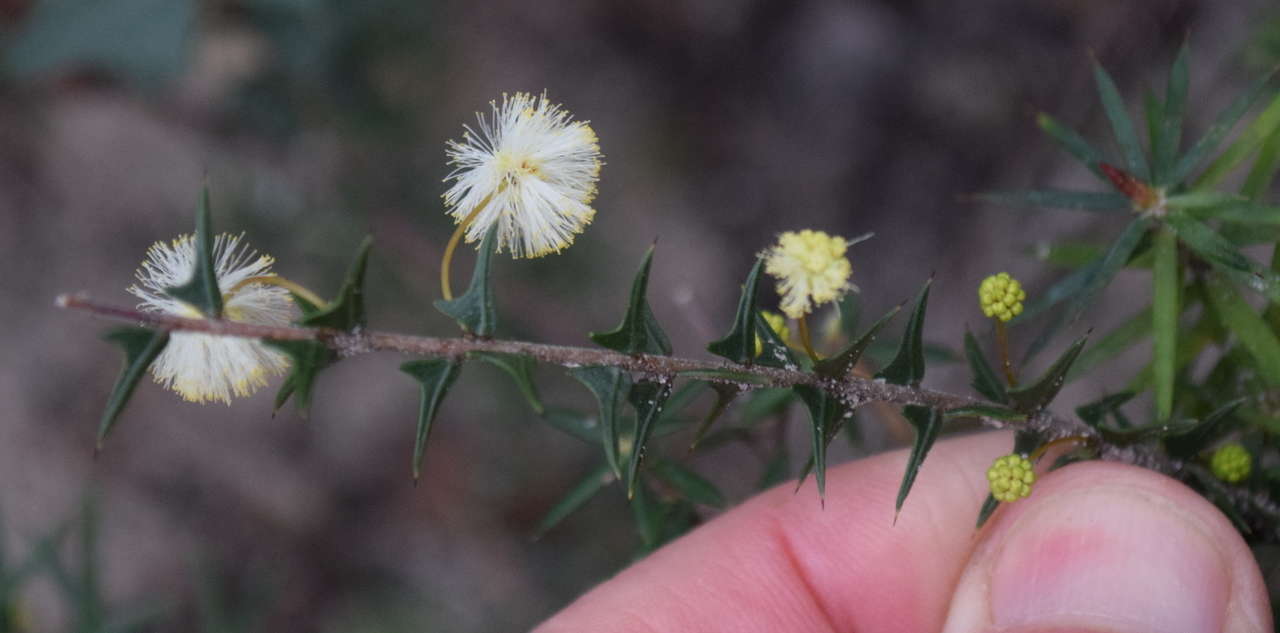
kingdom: Plantae
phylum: Tracheophyta
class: Magnoliopsida
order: Fabales
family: Fabaceae
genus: Acacia
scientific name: Acacia gunnii
